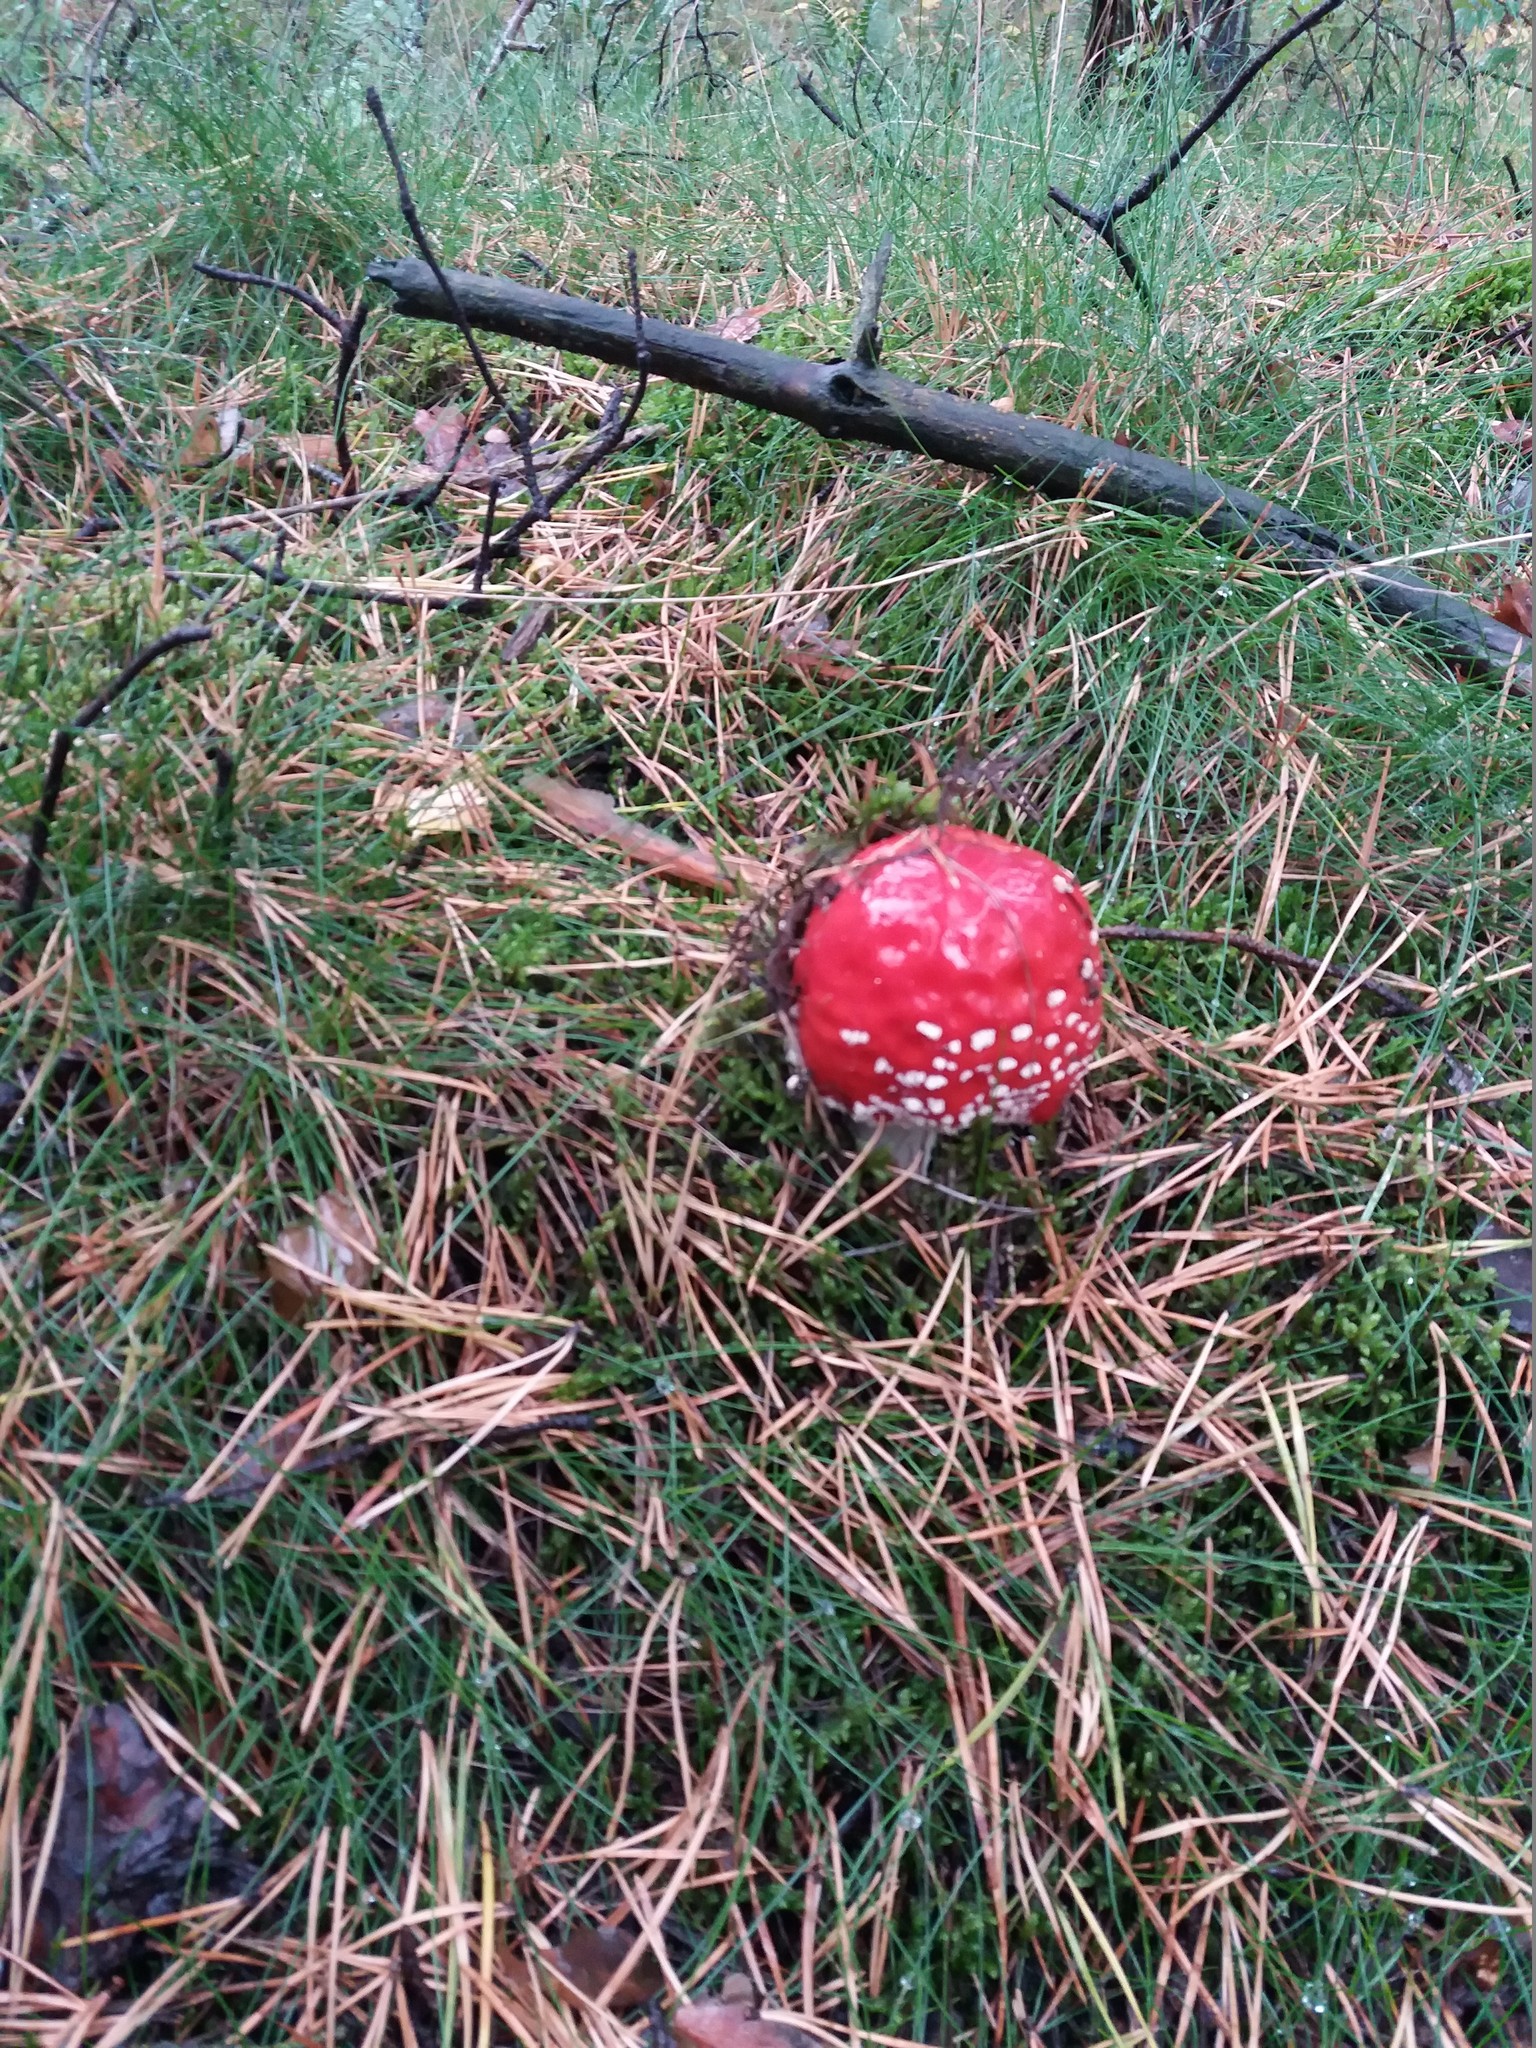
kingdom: Fungi
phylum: Basidiomycota
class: Agaricomycetes
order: Agaricales
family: Amanitaceae
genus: Amanita
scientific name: Amanita muscaria
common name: Fly agaric
